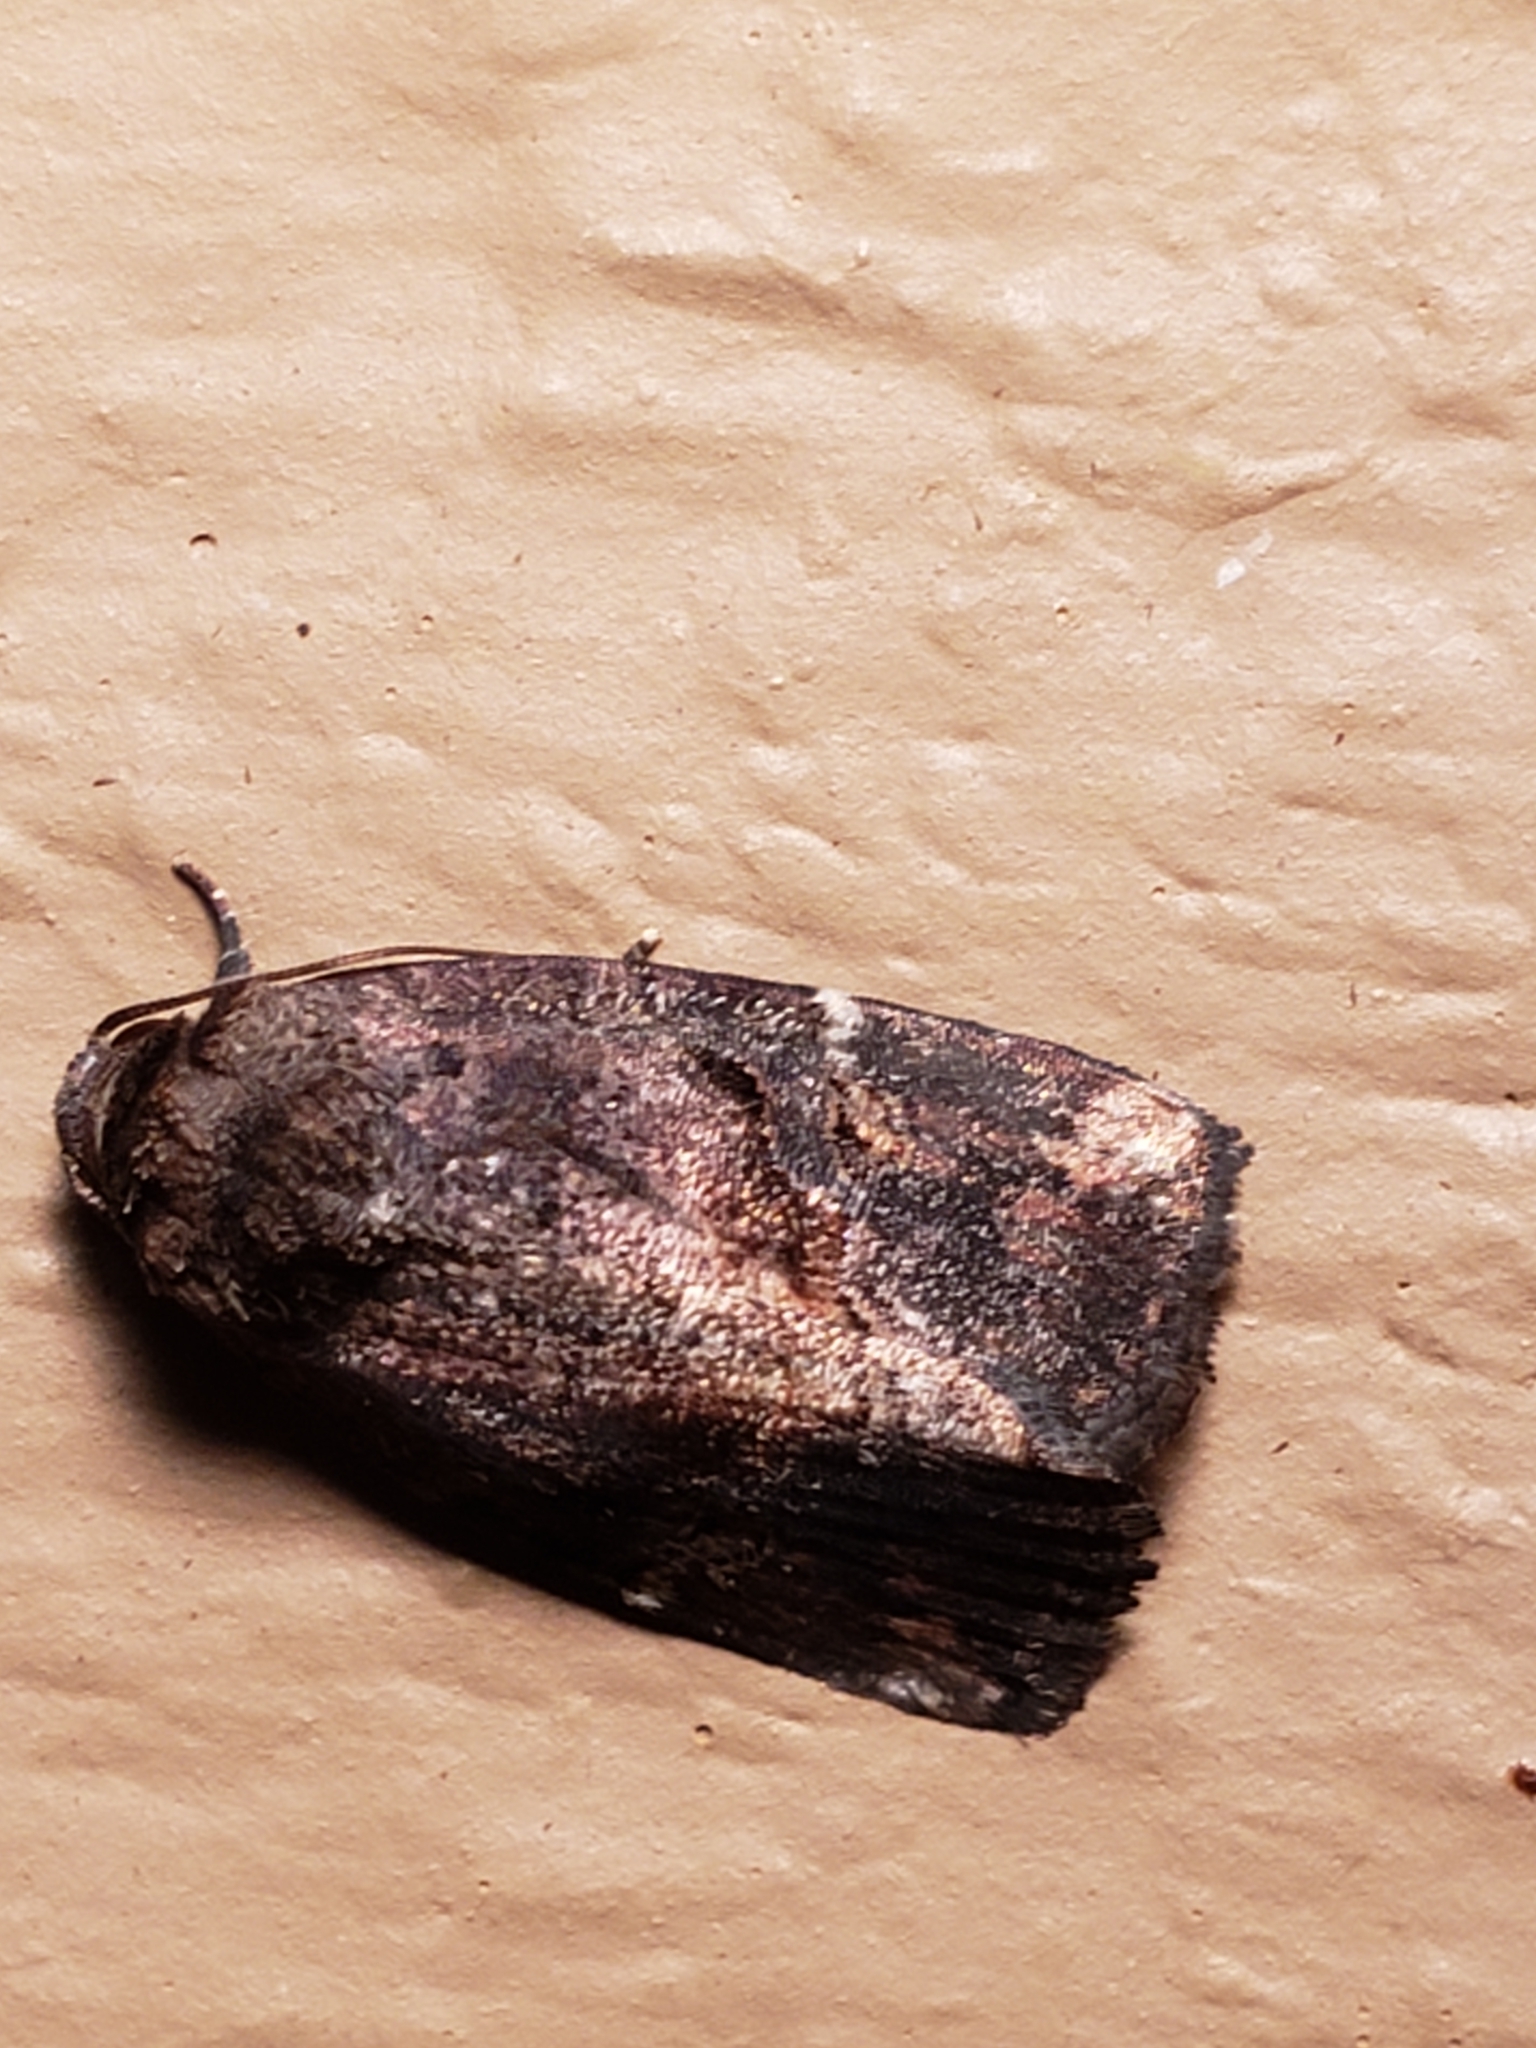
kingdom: Animalia
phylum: Arthropoda
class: Insecta
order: Lepidoptera
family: Noctuidae
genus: Elaphria
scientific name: Elaphria versicolor
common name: Fir harlequin
